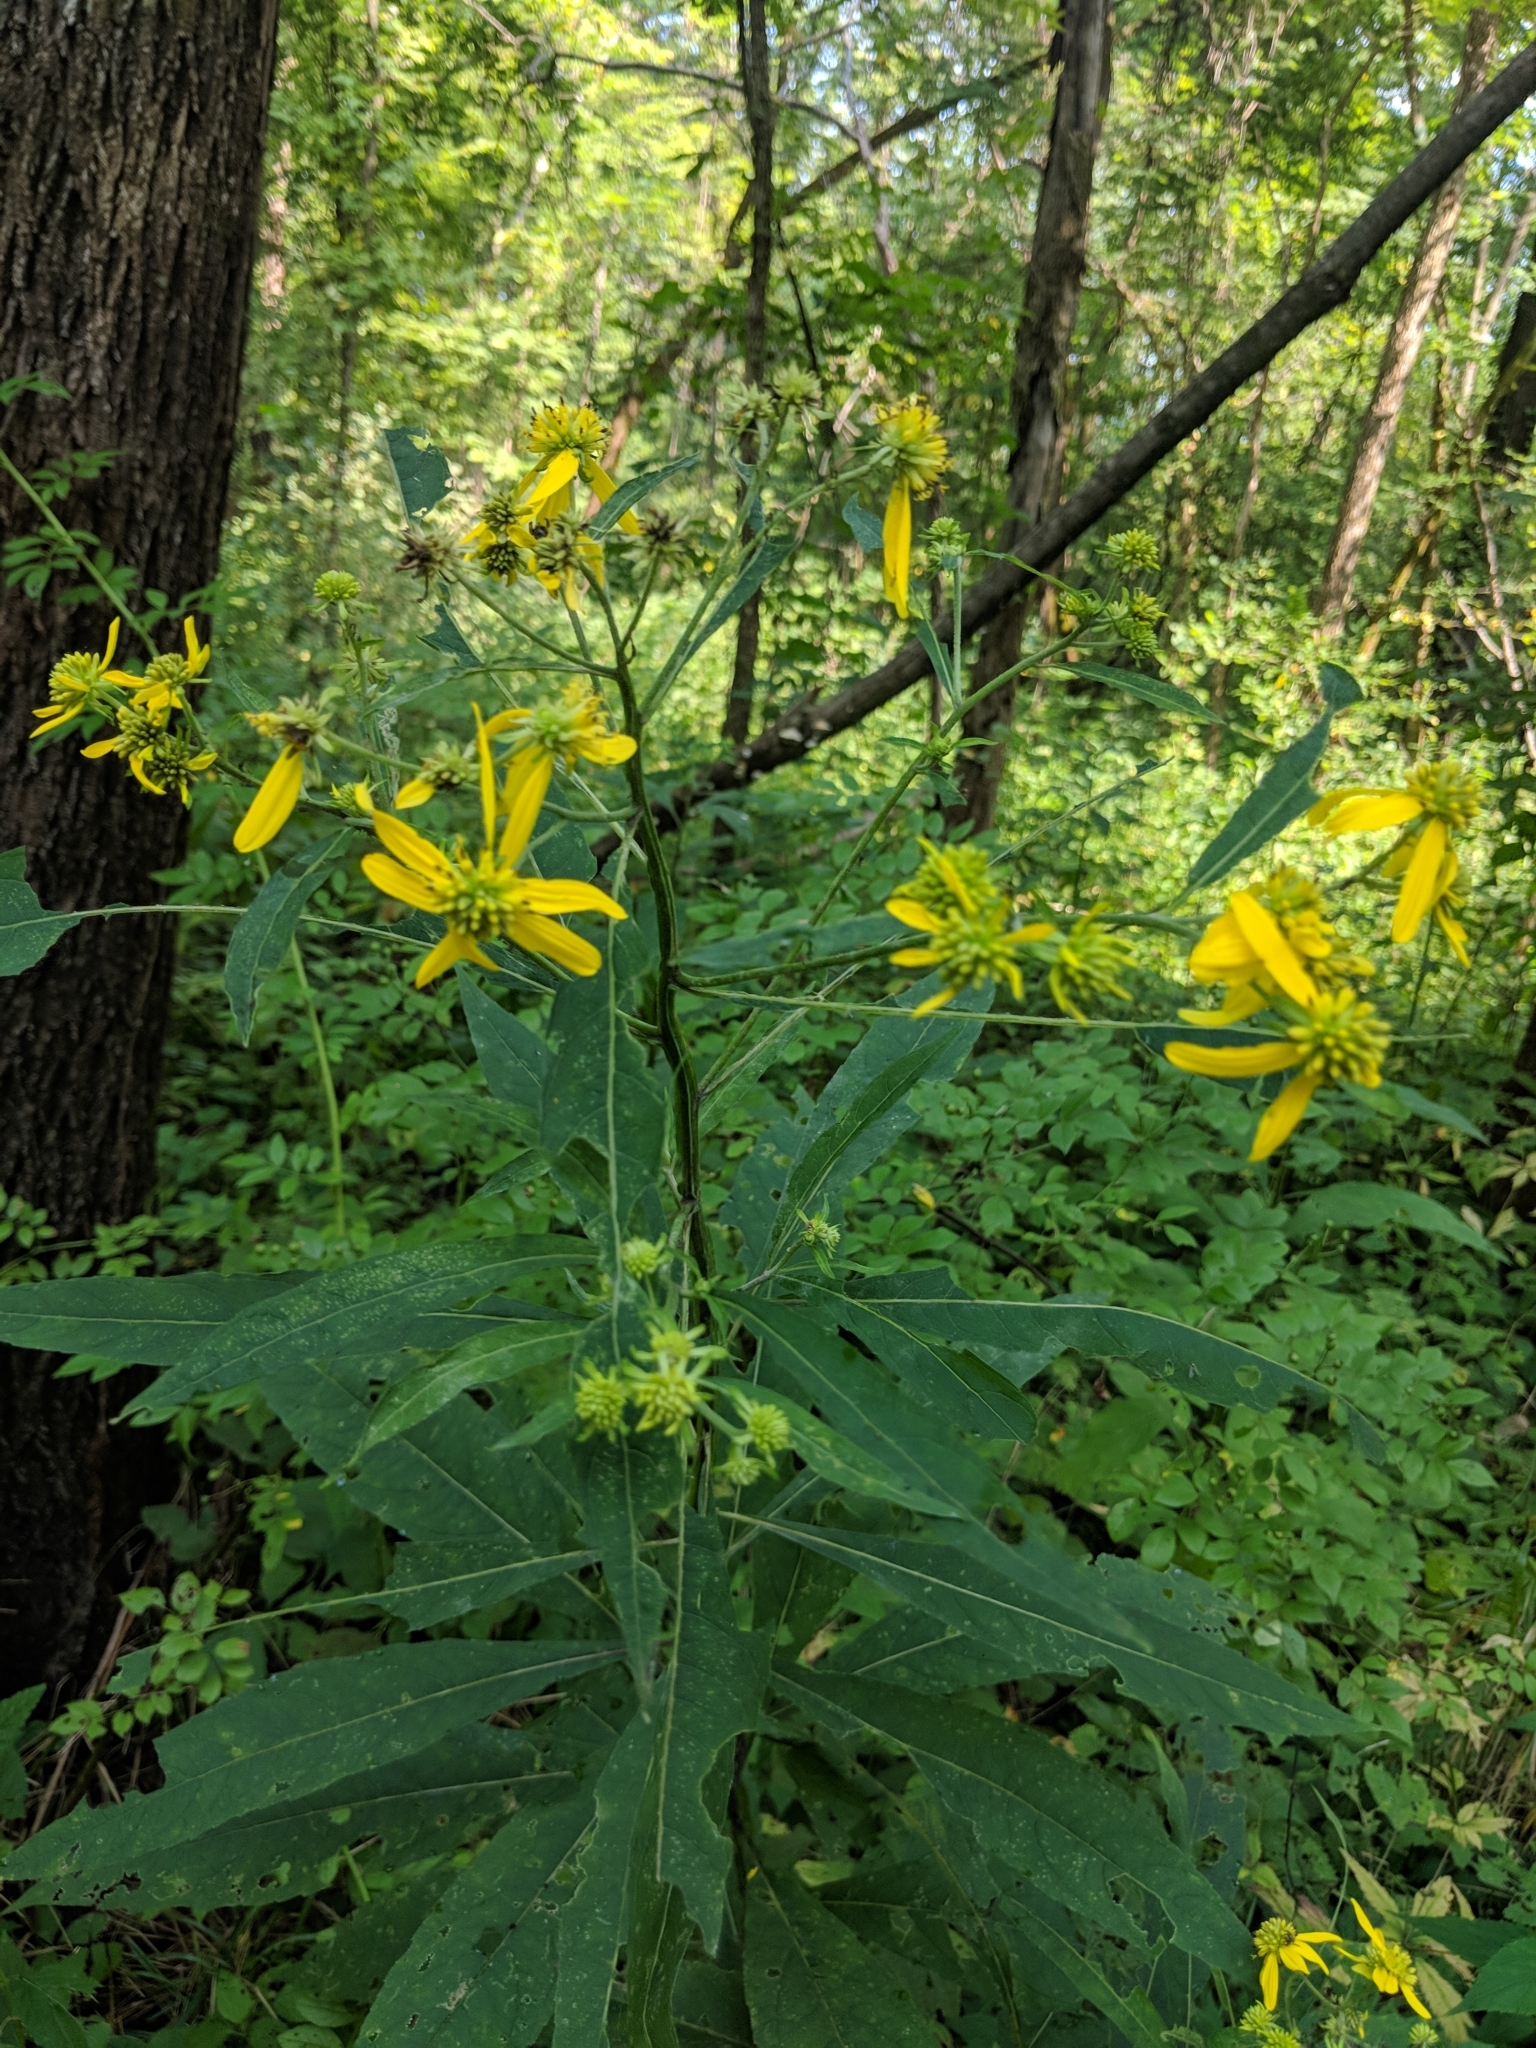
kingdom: Plantae
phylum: Tracheophyta
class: Magnoliopsida
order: Asterales
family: Asteraceae
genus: Verbesina
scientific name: Verbesina alternifolia
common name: Wingstem
